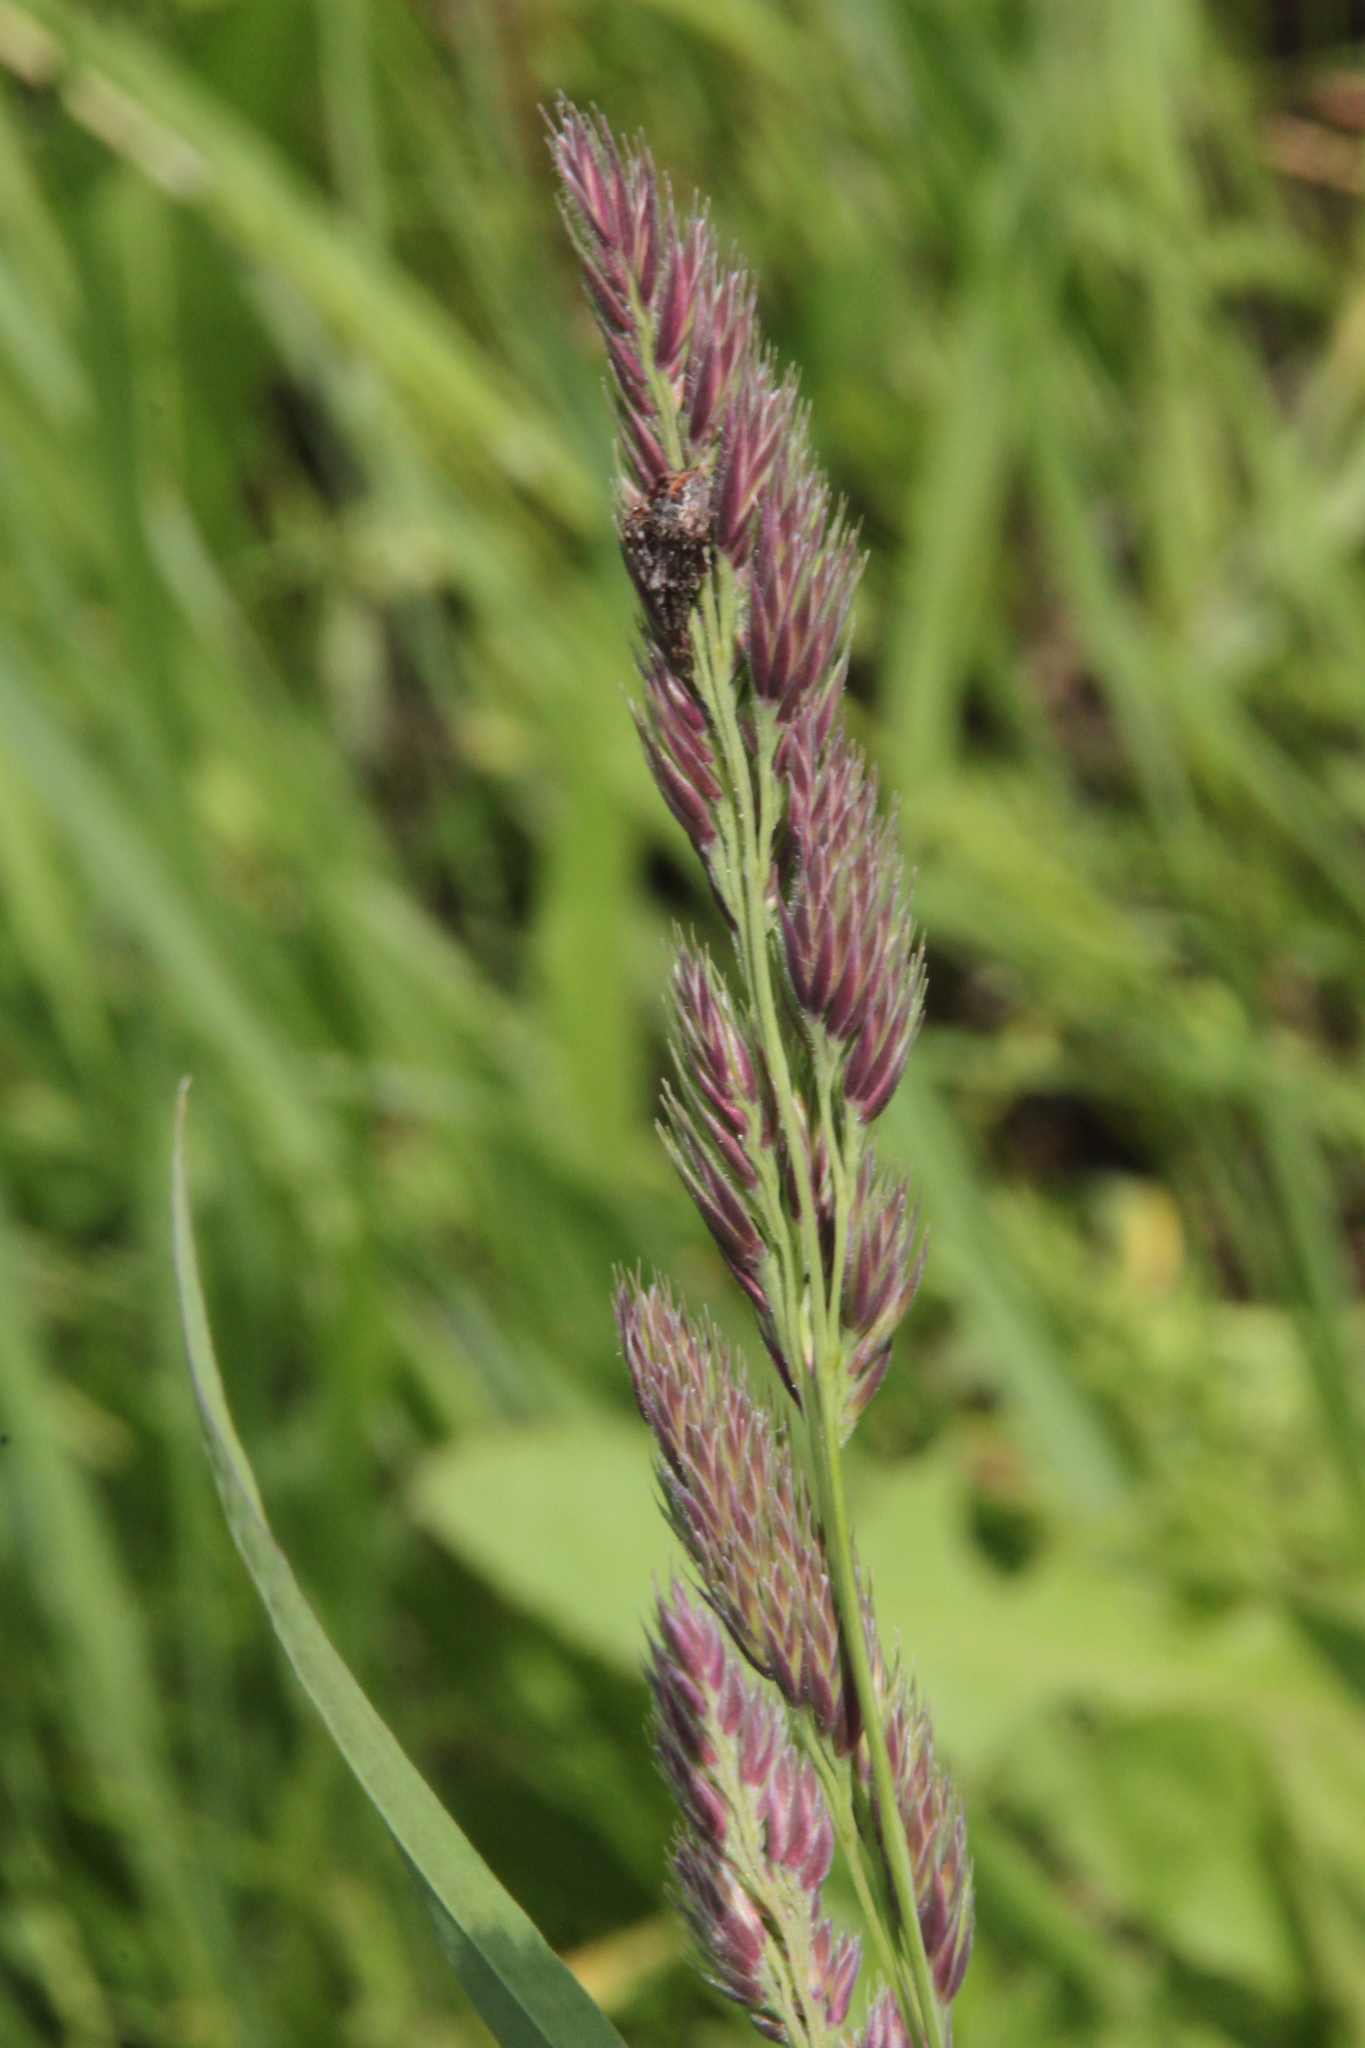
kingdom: Plantae
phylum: Tracheophyta
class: Liliopsida
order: Poales
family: Poaceae
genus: Dactylis
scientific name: Dactylis glomerata
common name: Orchardgrass
